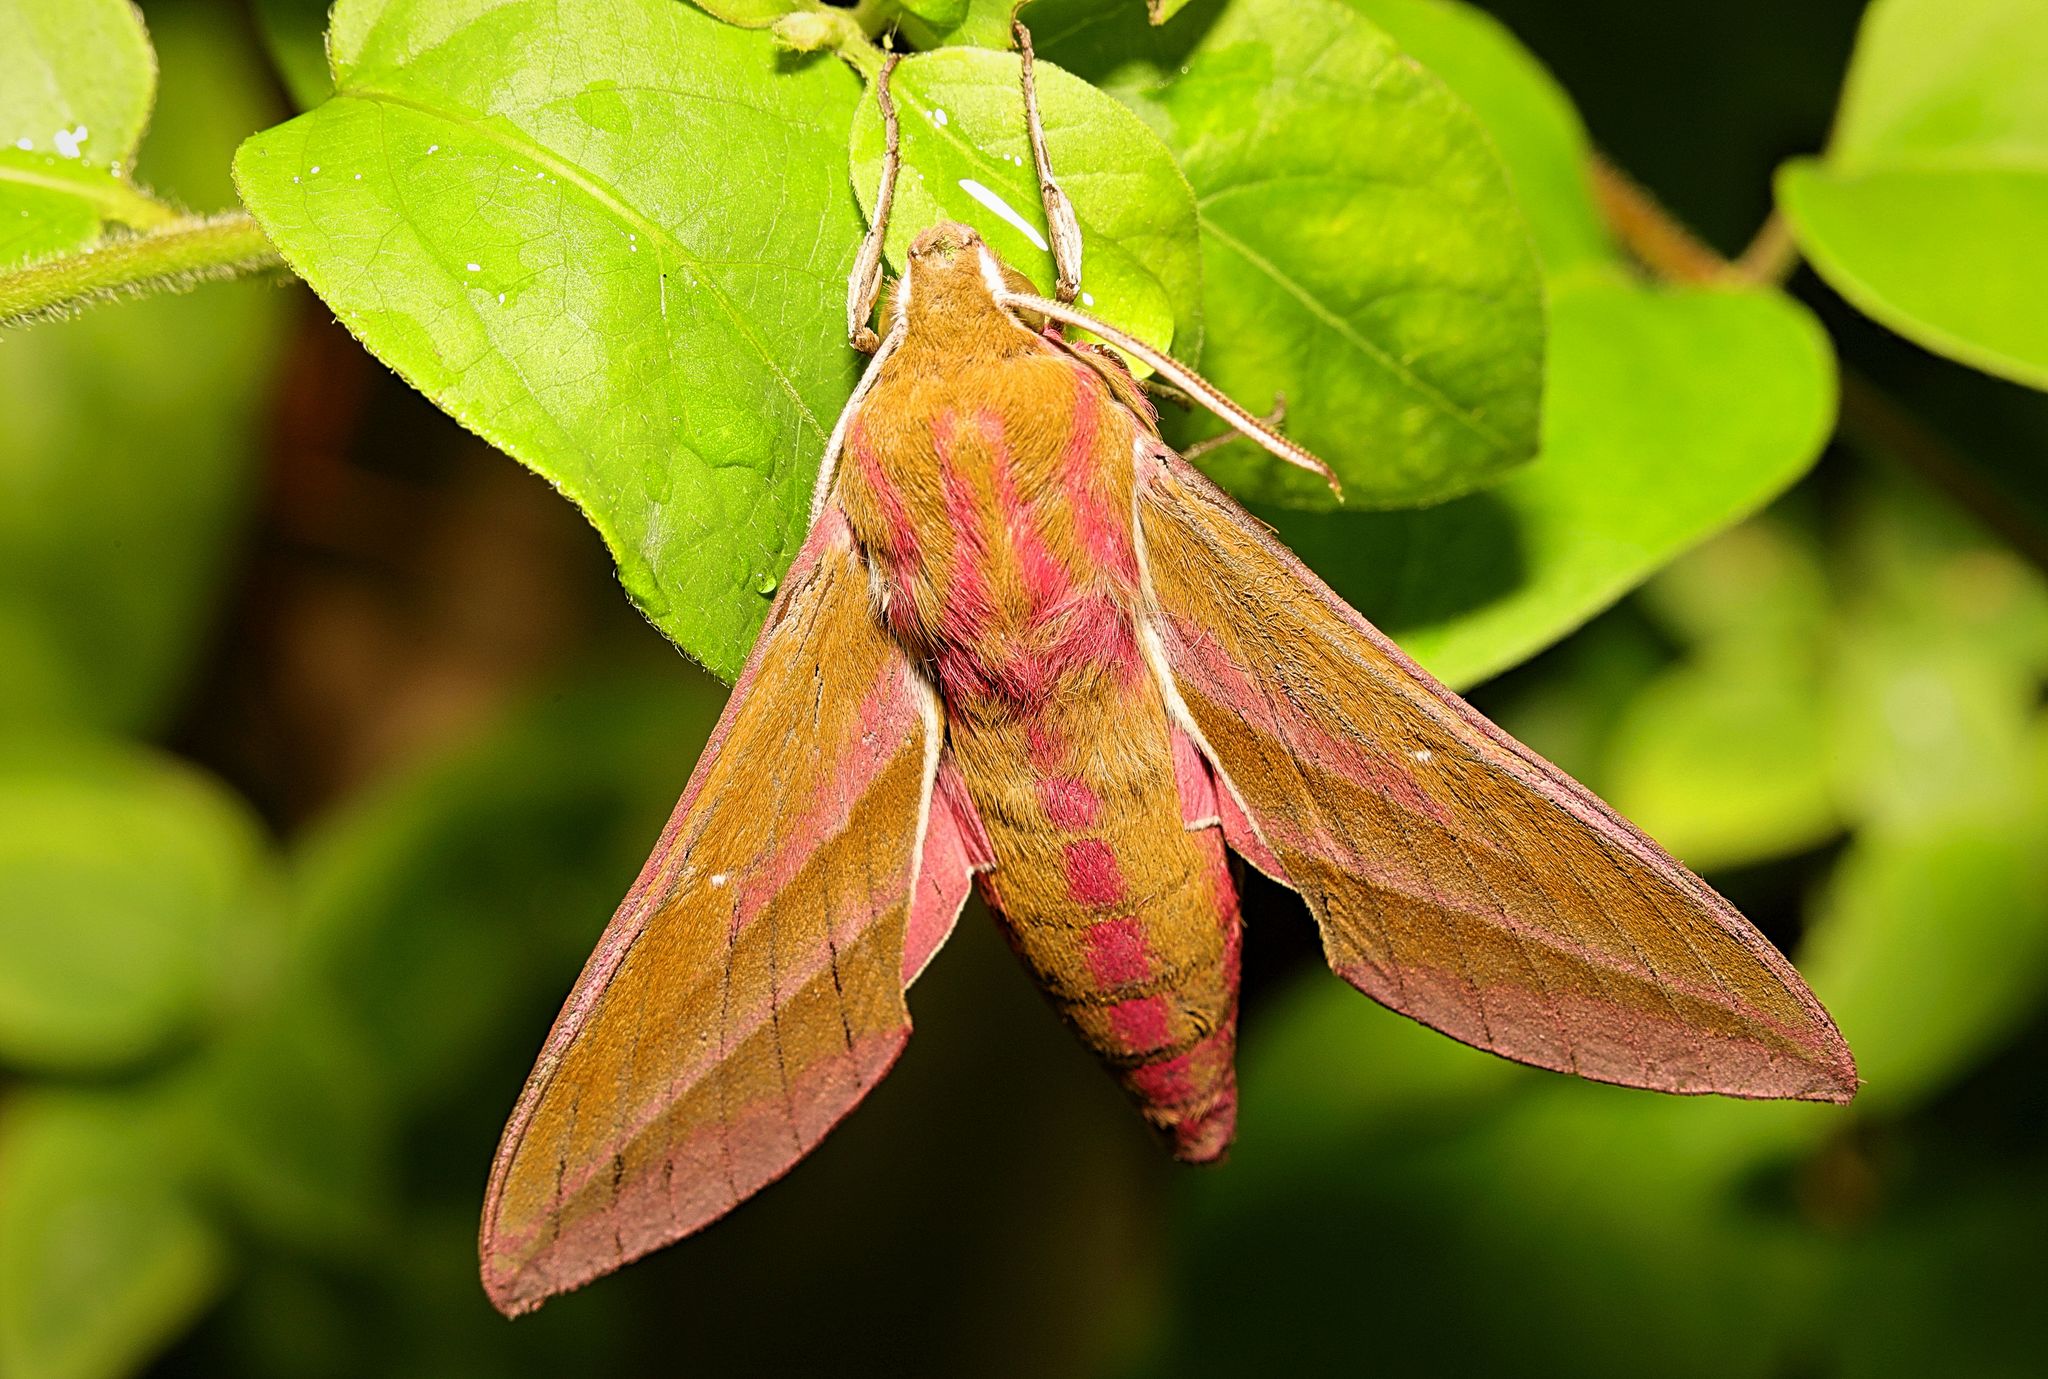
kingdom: Animalia
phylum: Arthropoda
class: Insecta
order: Lepidoptera
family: Sphingidae
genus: Deilephila
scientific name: Deilephila elpenor
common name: Elephant hawk-moth
